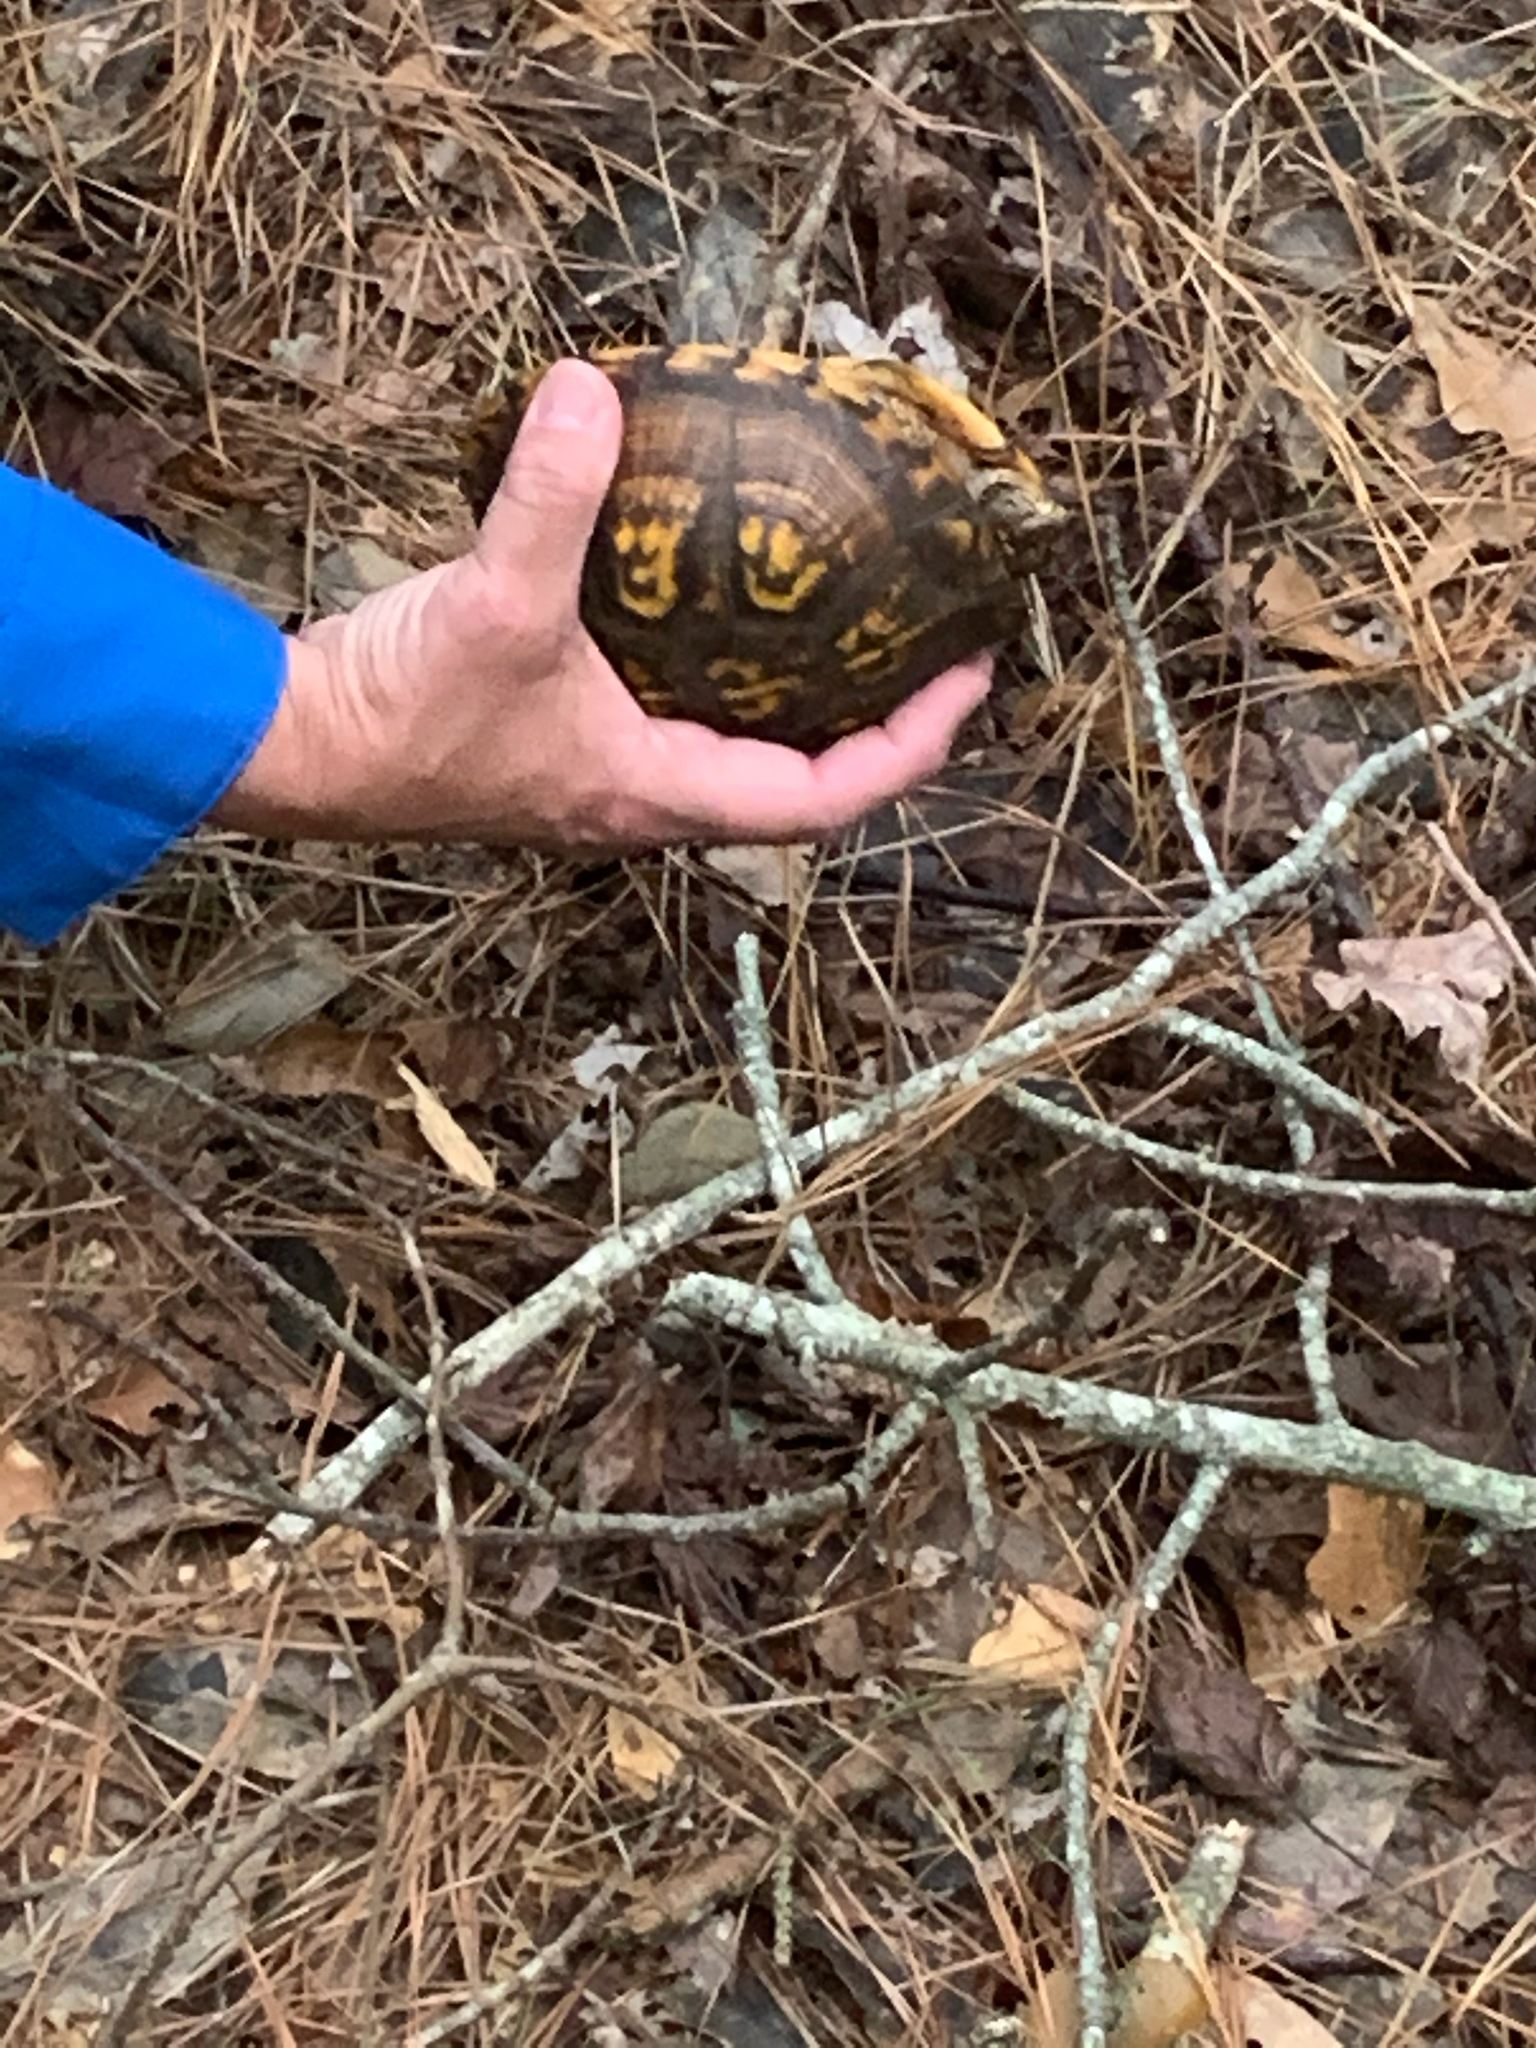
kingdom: Animalia
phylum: Chordata
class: Testudines
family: Emydidae
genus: Terrapene
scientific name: Terrapene carolina
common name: Common box turtle
